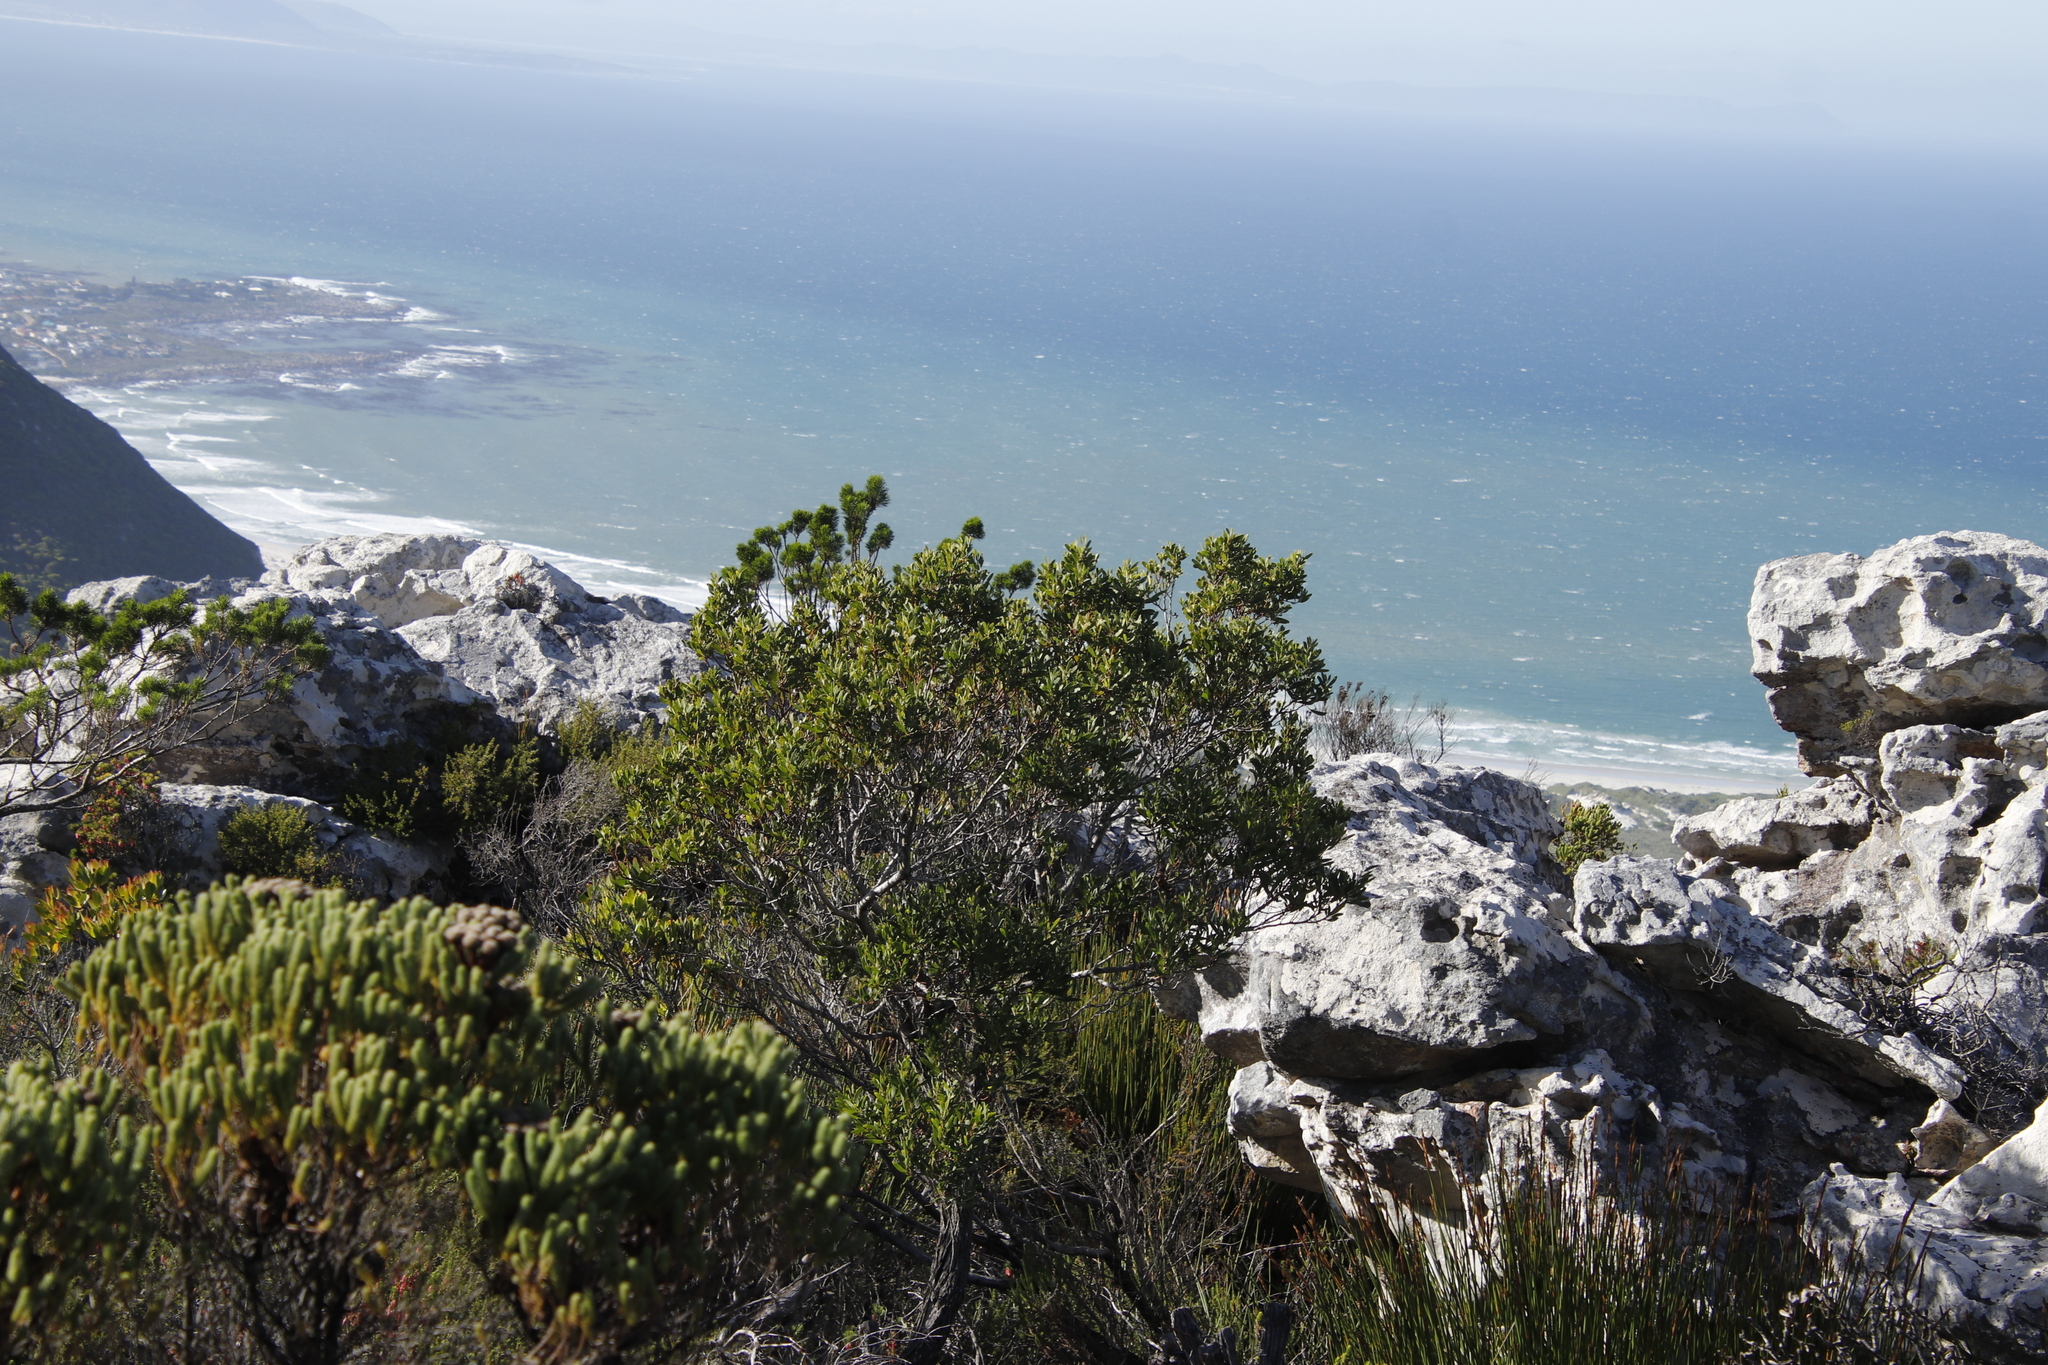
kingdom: Plantae
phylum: Tracheophyta
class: Magnoliopsida
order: Fabales
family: Fabaceae
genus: Acacia
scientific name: Acacia cyclops
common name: Coastal wattle
